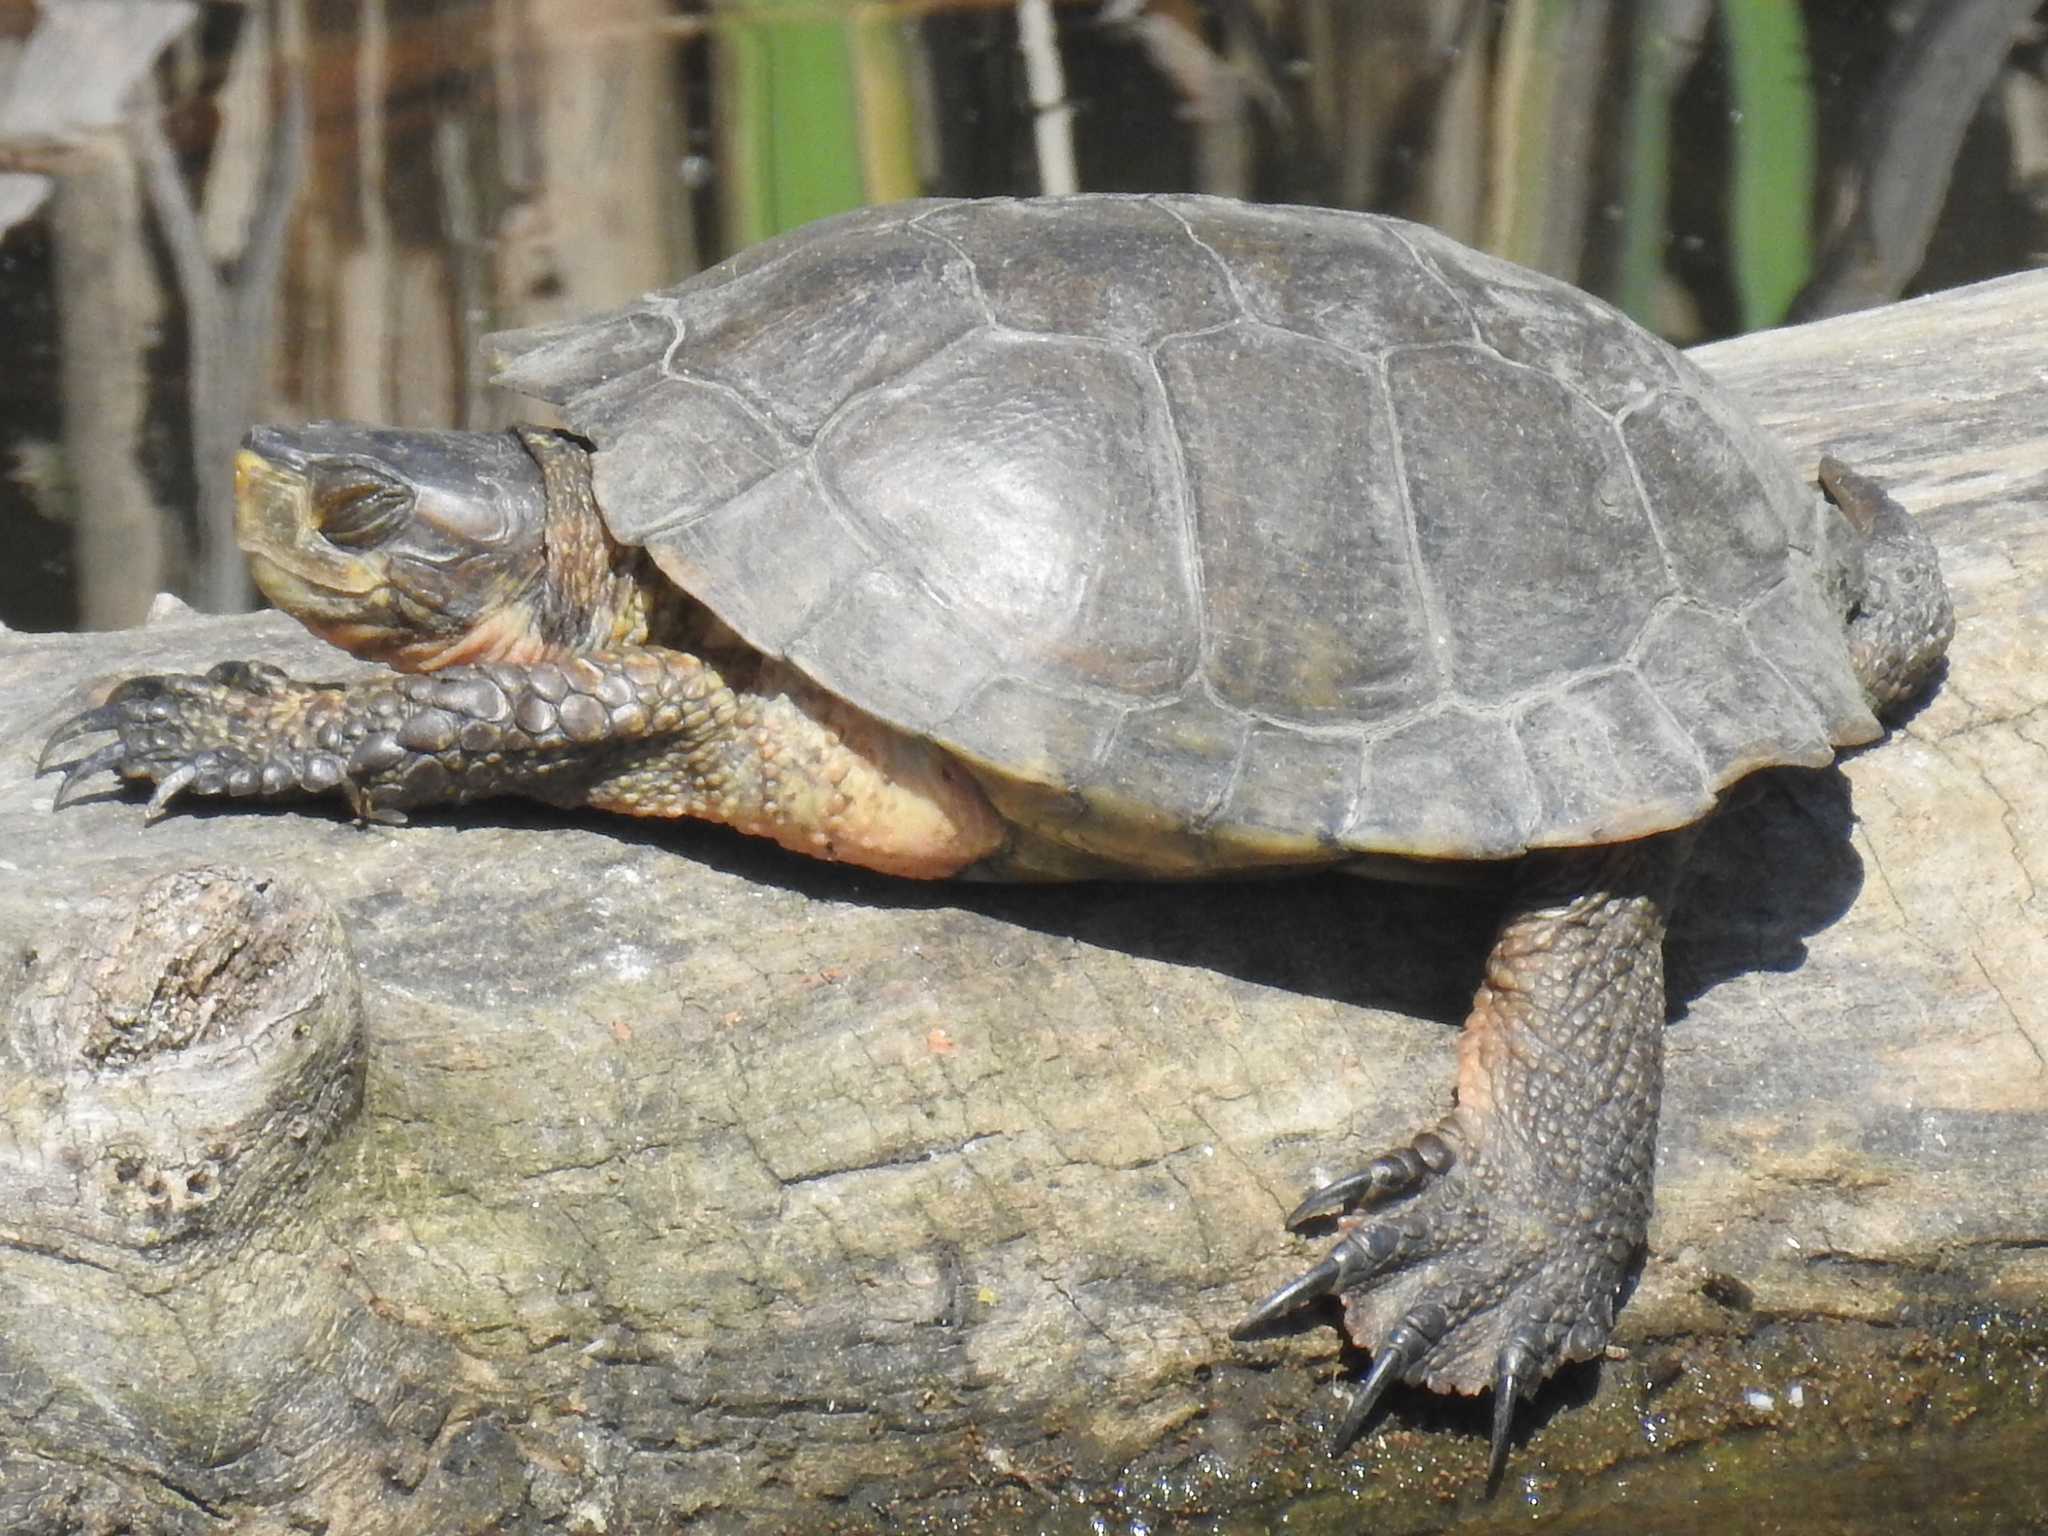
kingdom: Animalia
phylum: Chordata
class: Testudines
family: Emydidae
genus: Actinemys
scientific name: Actinemys marmorata
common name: Western pond turtle
